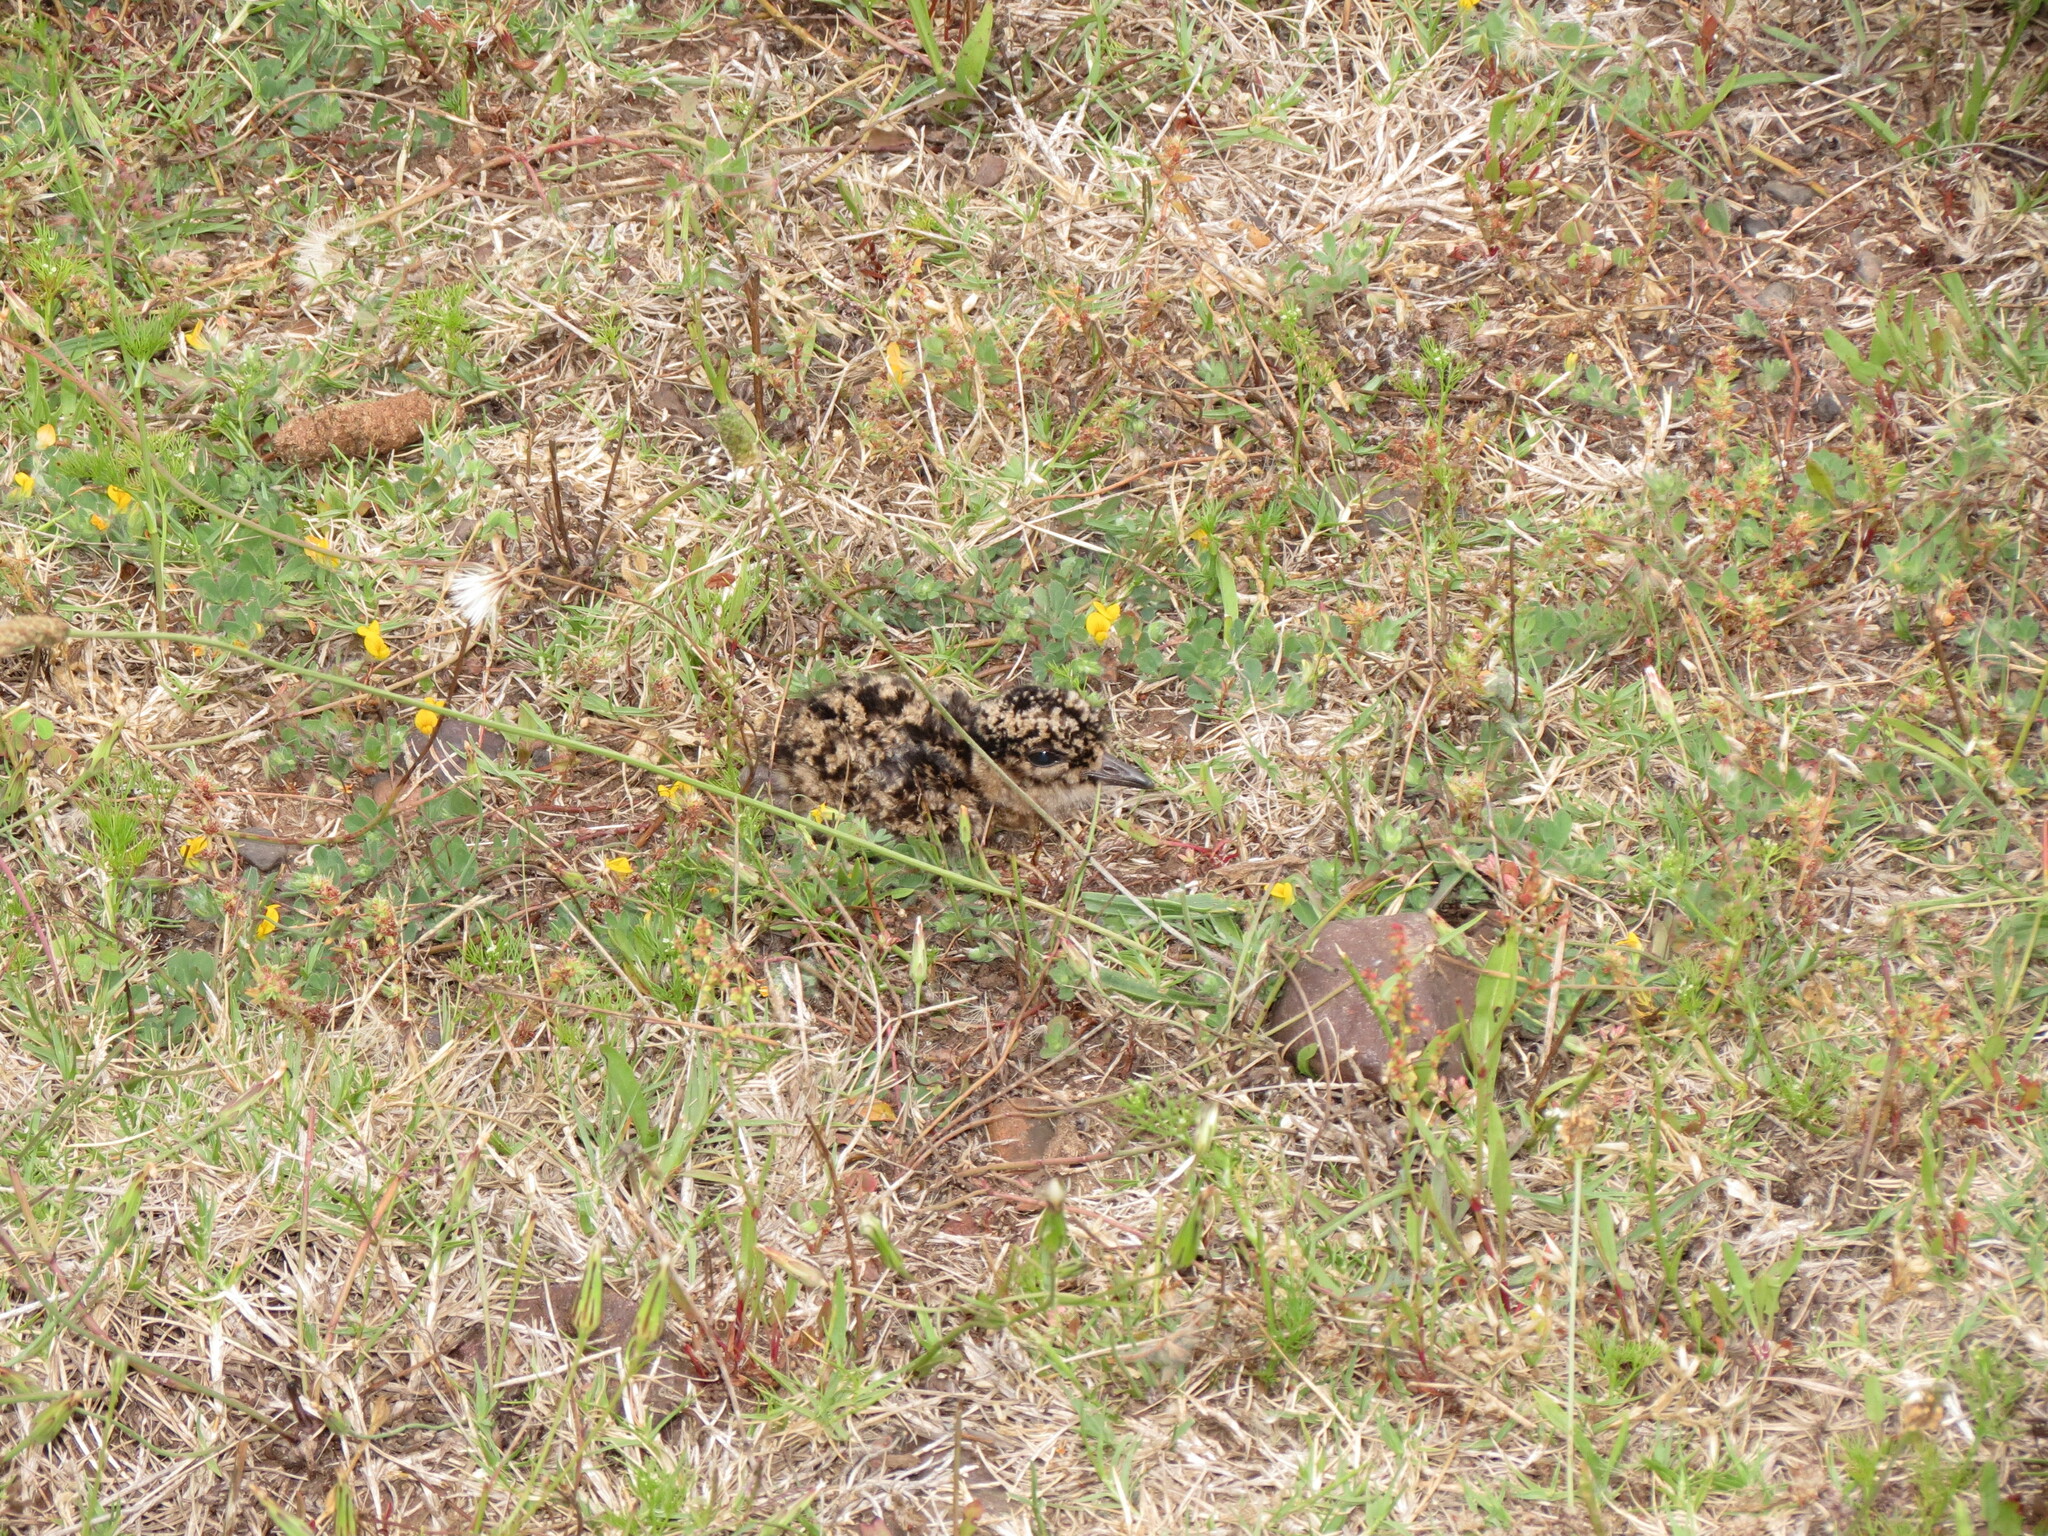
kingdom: Animalia
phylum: Chordata
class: Aves
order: Charadriiformes
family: Charadriidae
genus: Vanellus
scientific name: Vanellus coronatus
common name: Crowned lapwing
